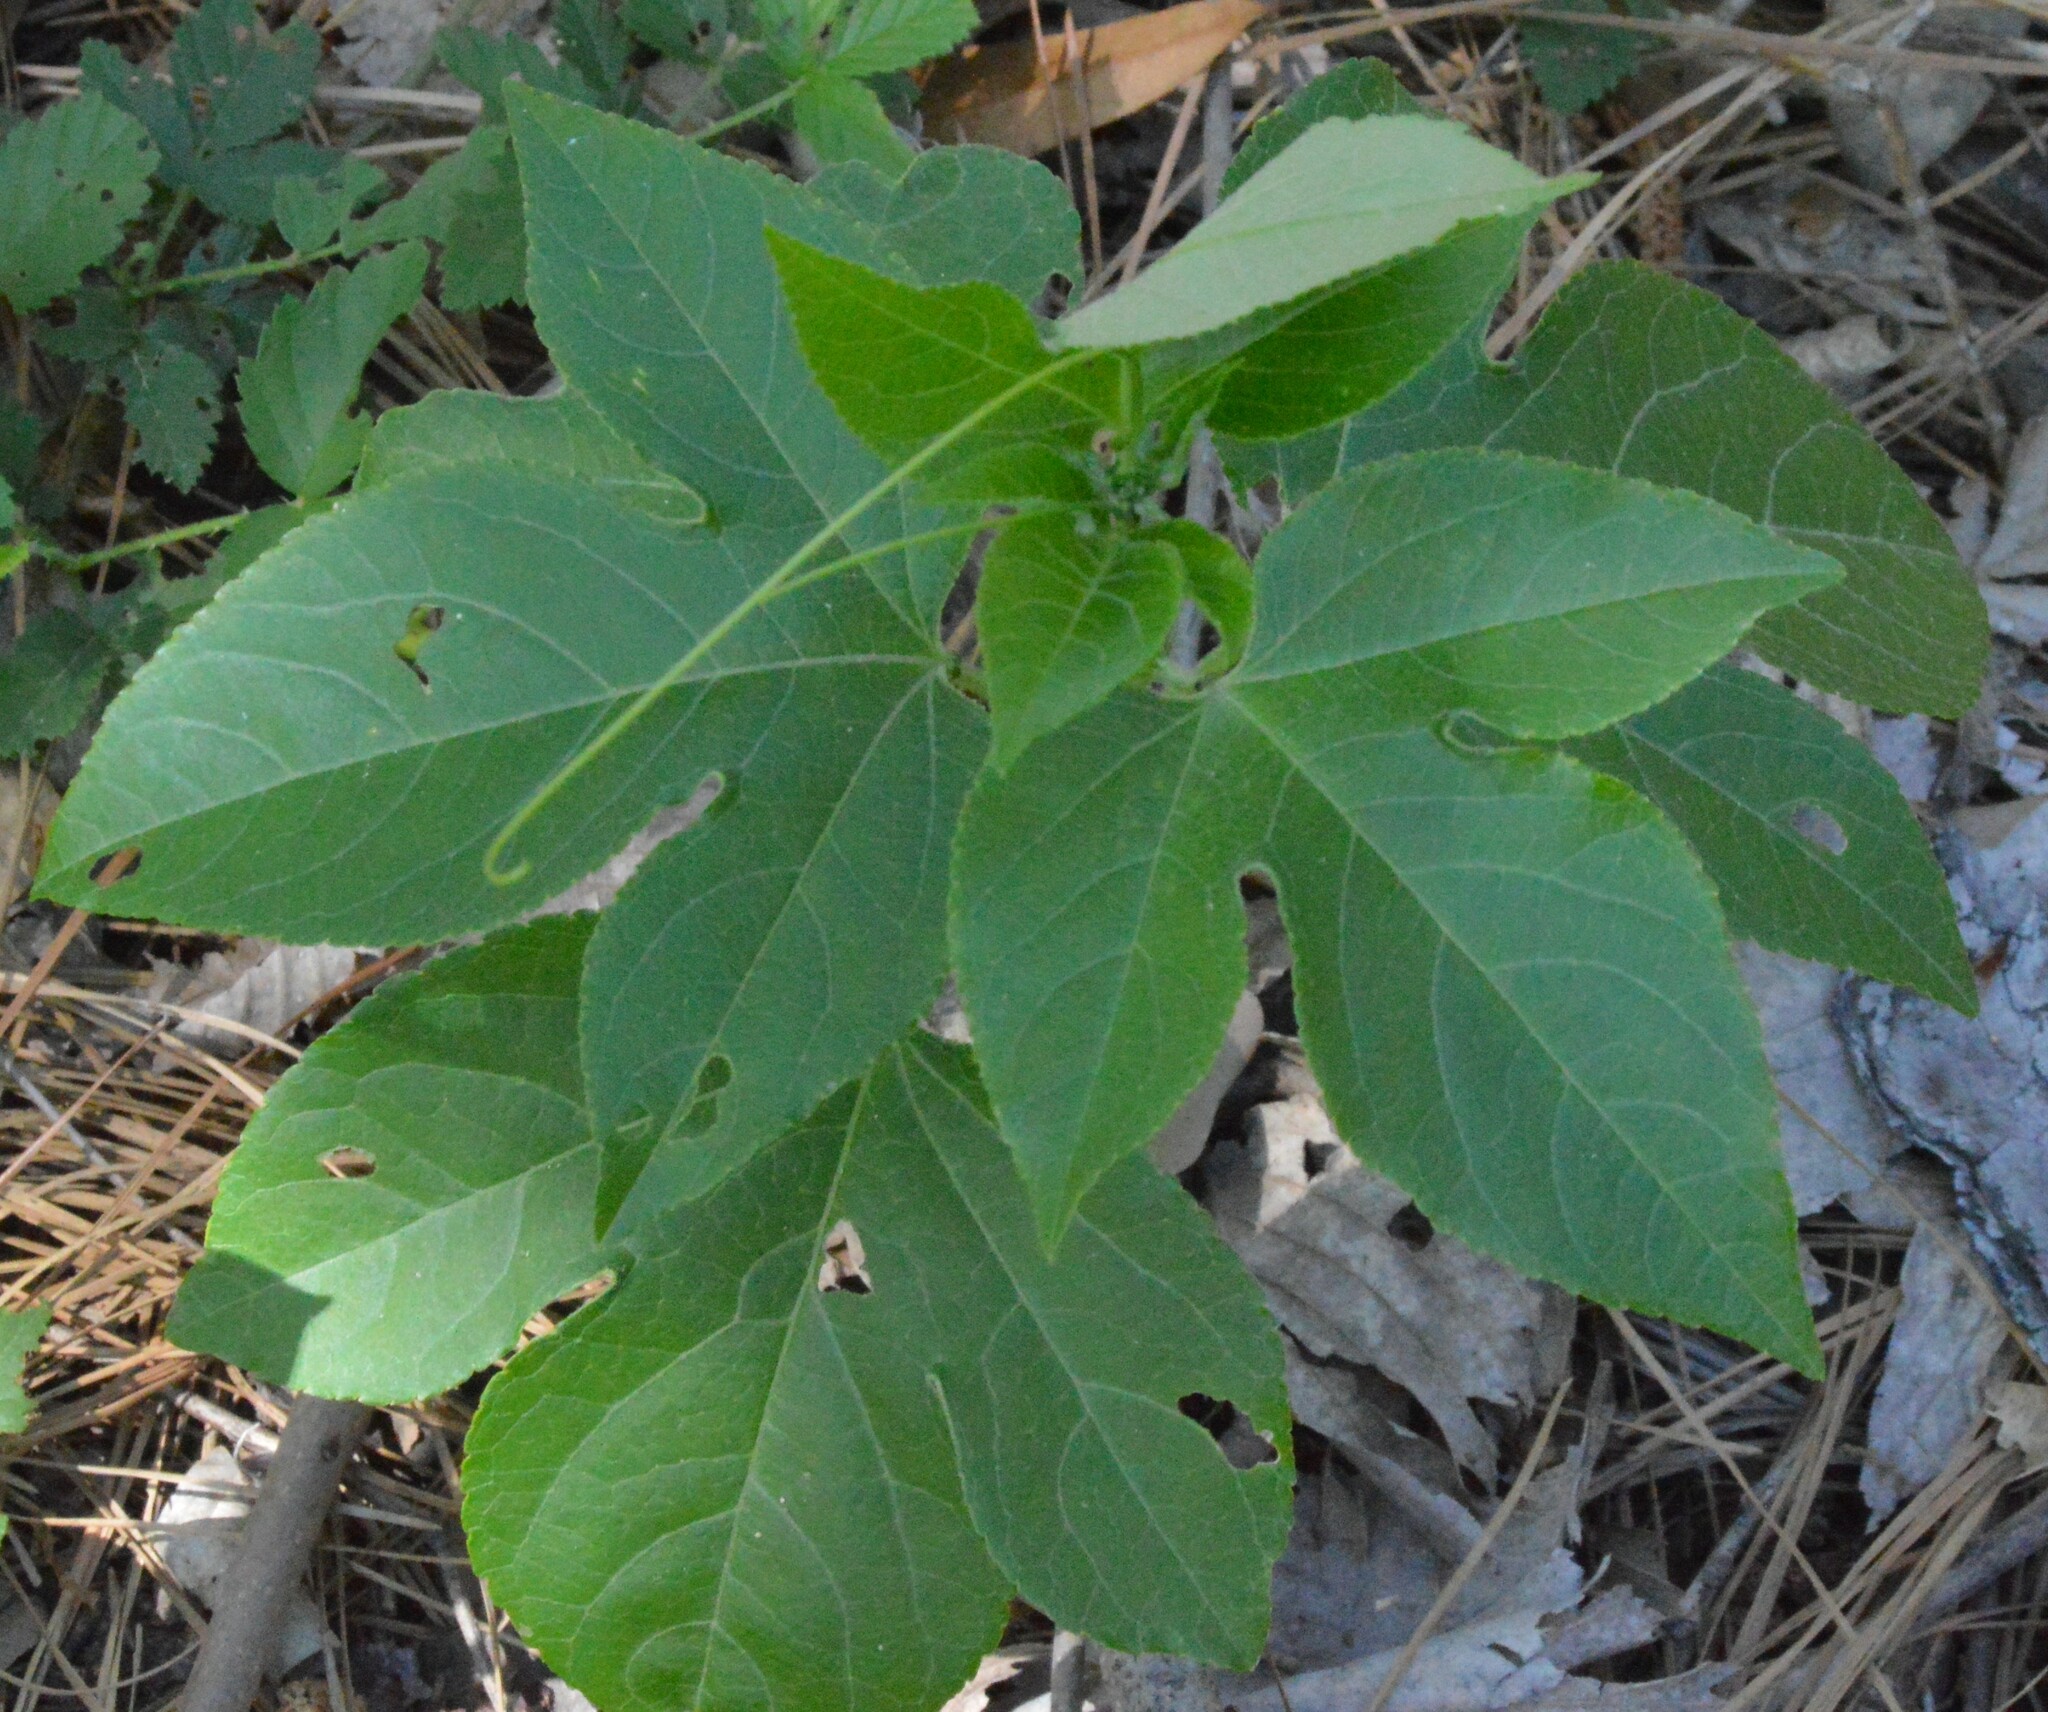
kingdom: Plantae
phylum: Tracheophyta
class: Magnoliopsida
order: Malpighiales
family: Passifloraceae
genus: Passiflora
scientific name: Passiflora incarnata
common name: Apricot-vine
